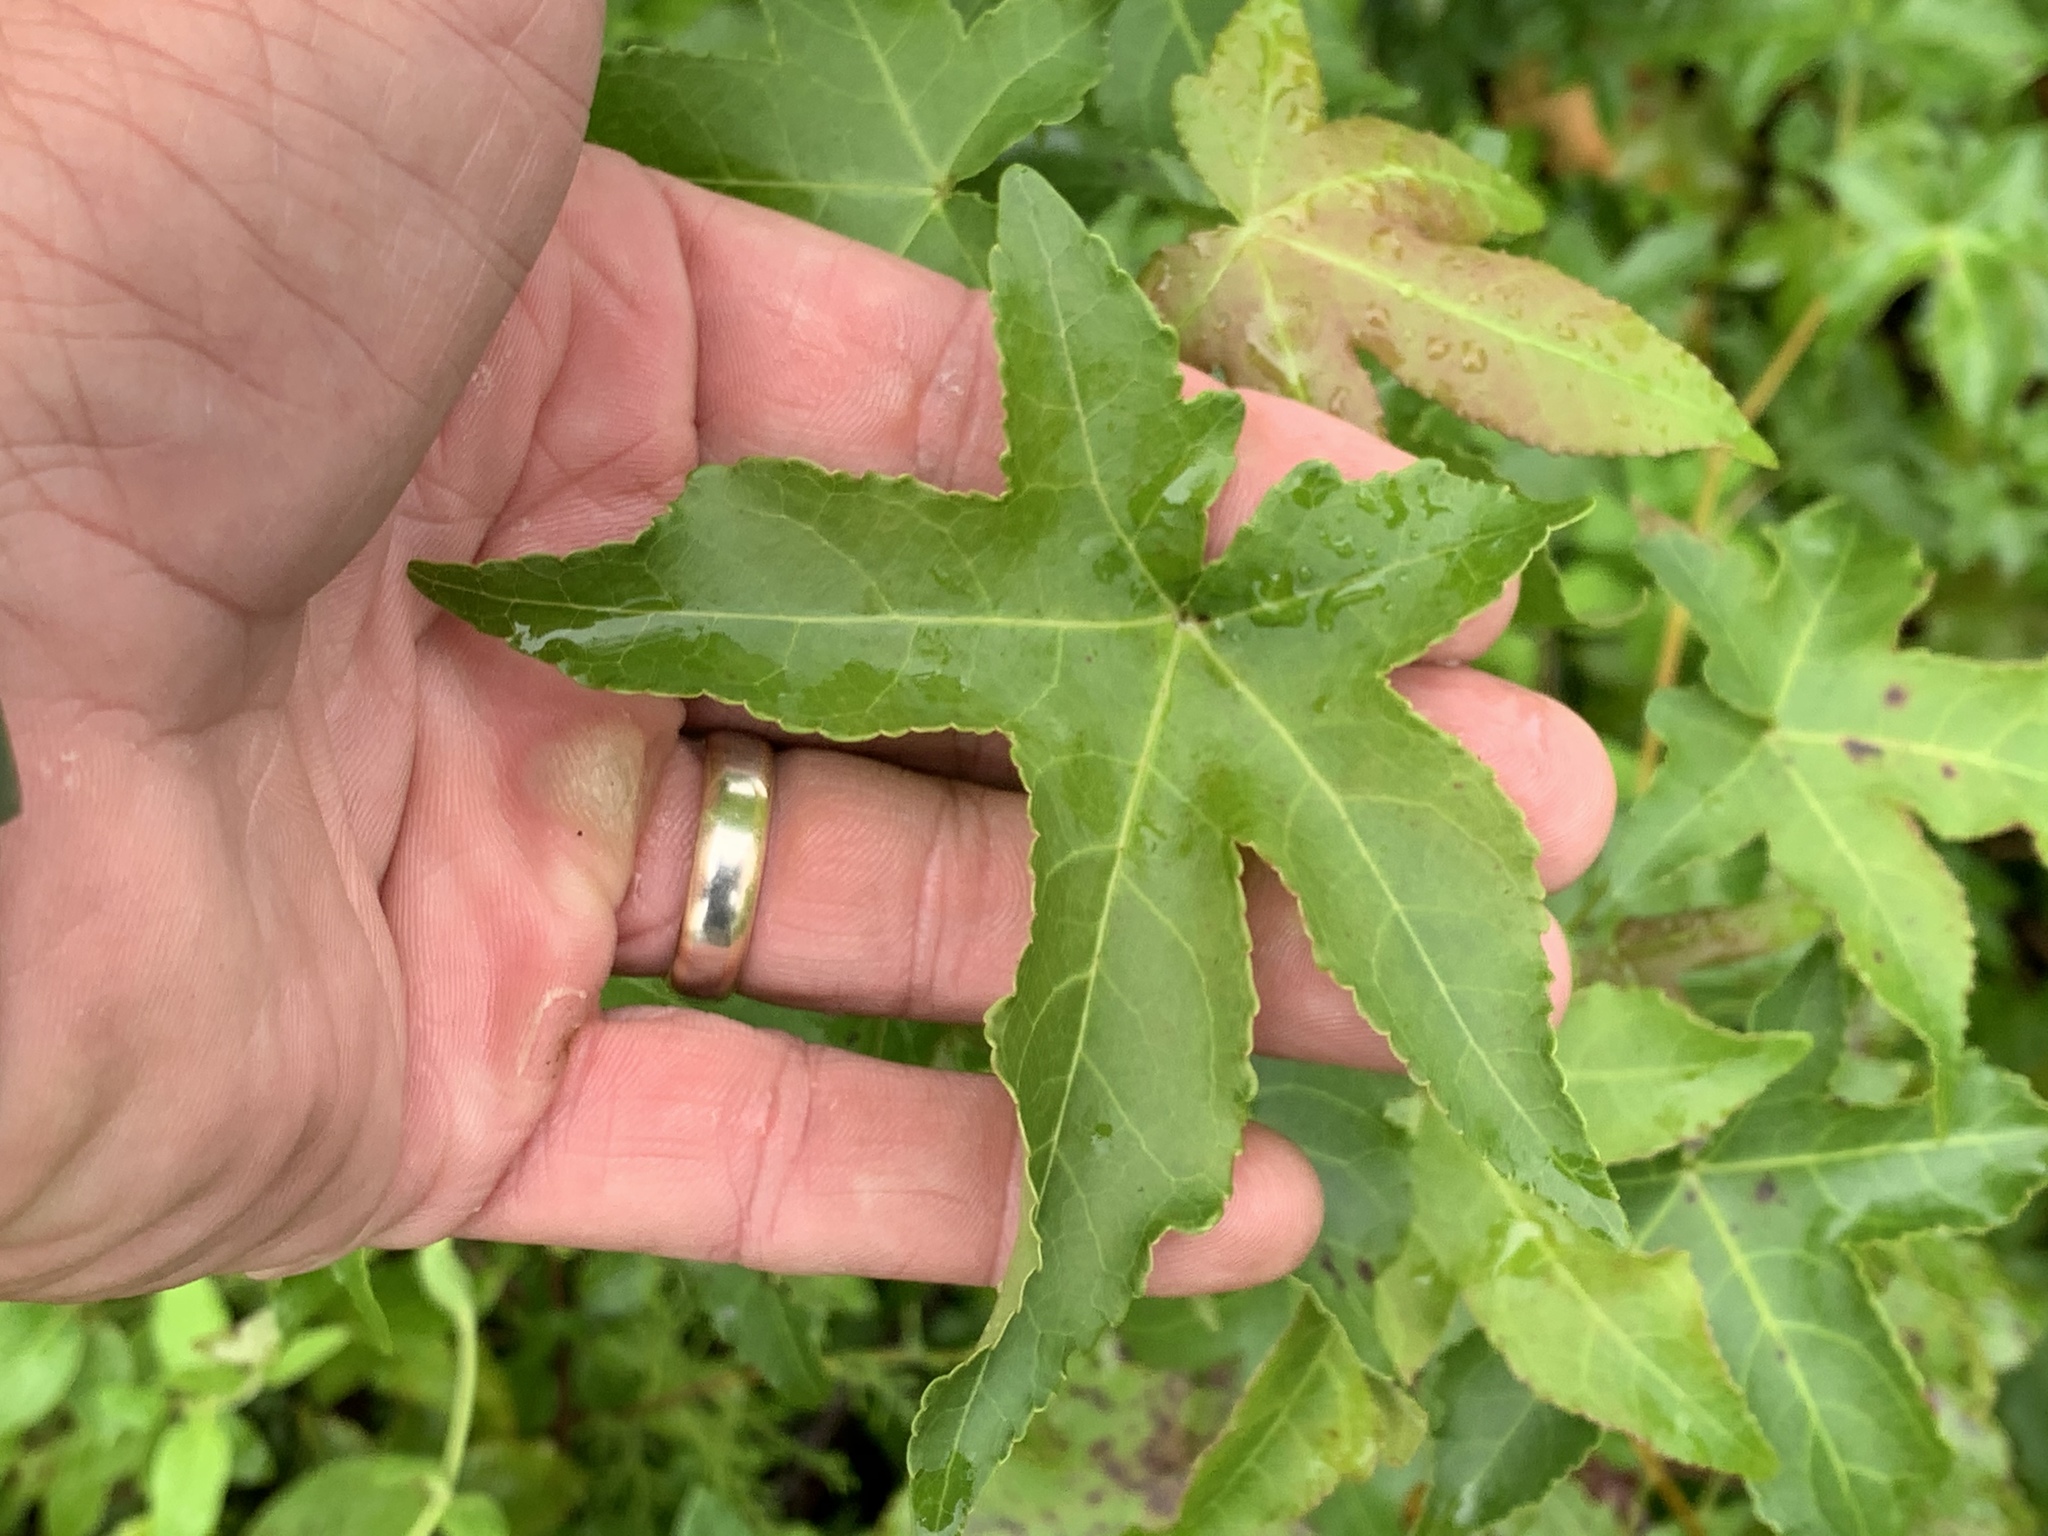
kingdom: Plantae
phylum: Tracheophyta
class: Magnoliopsida
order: Saxifragales
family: Altingiaceae
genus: Liquidambar
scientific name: Liquidambar styraciflua
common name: Sweet gum
